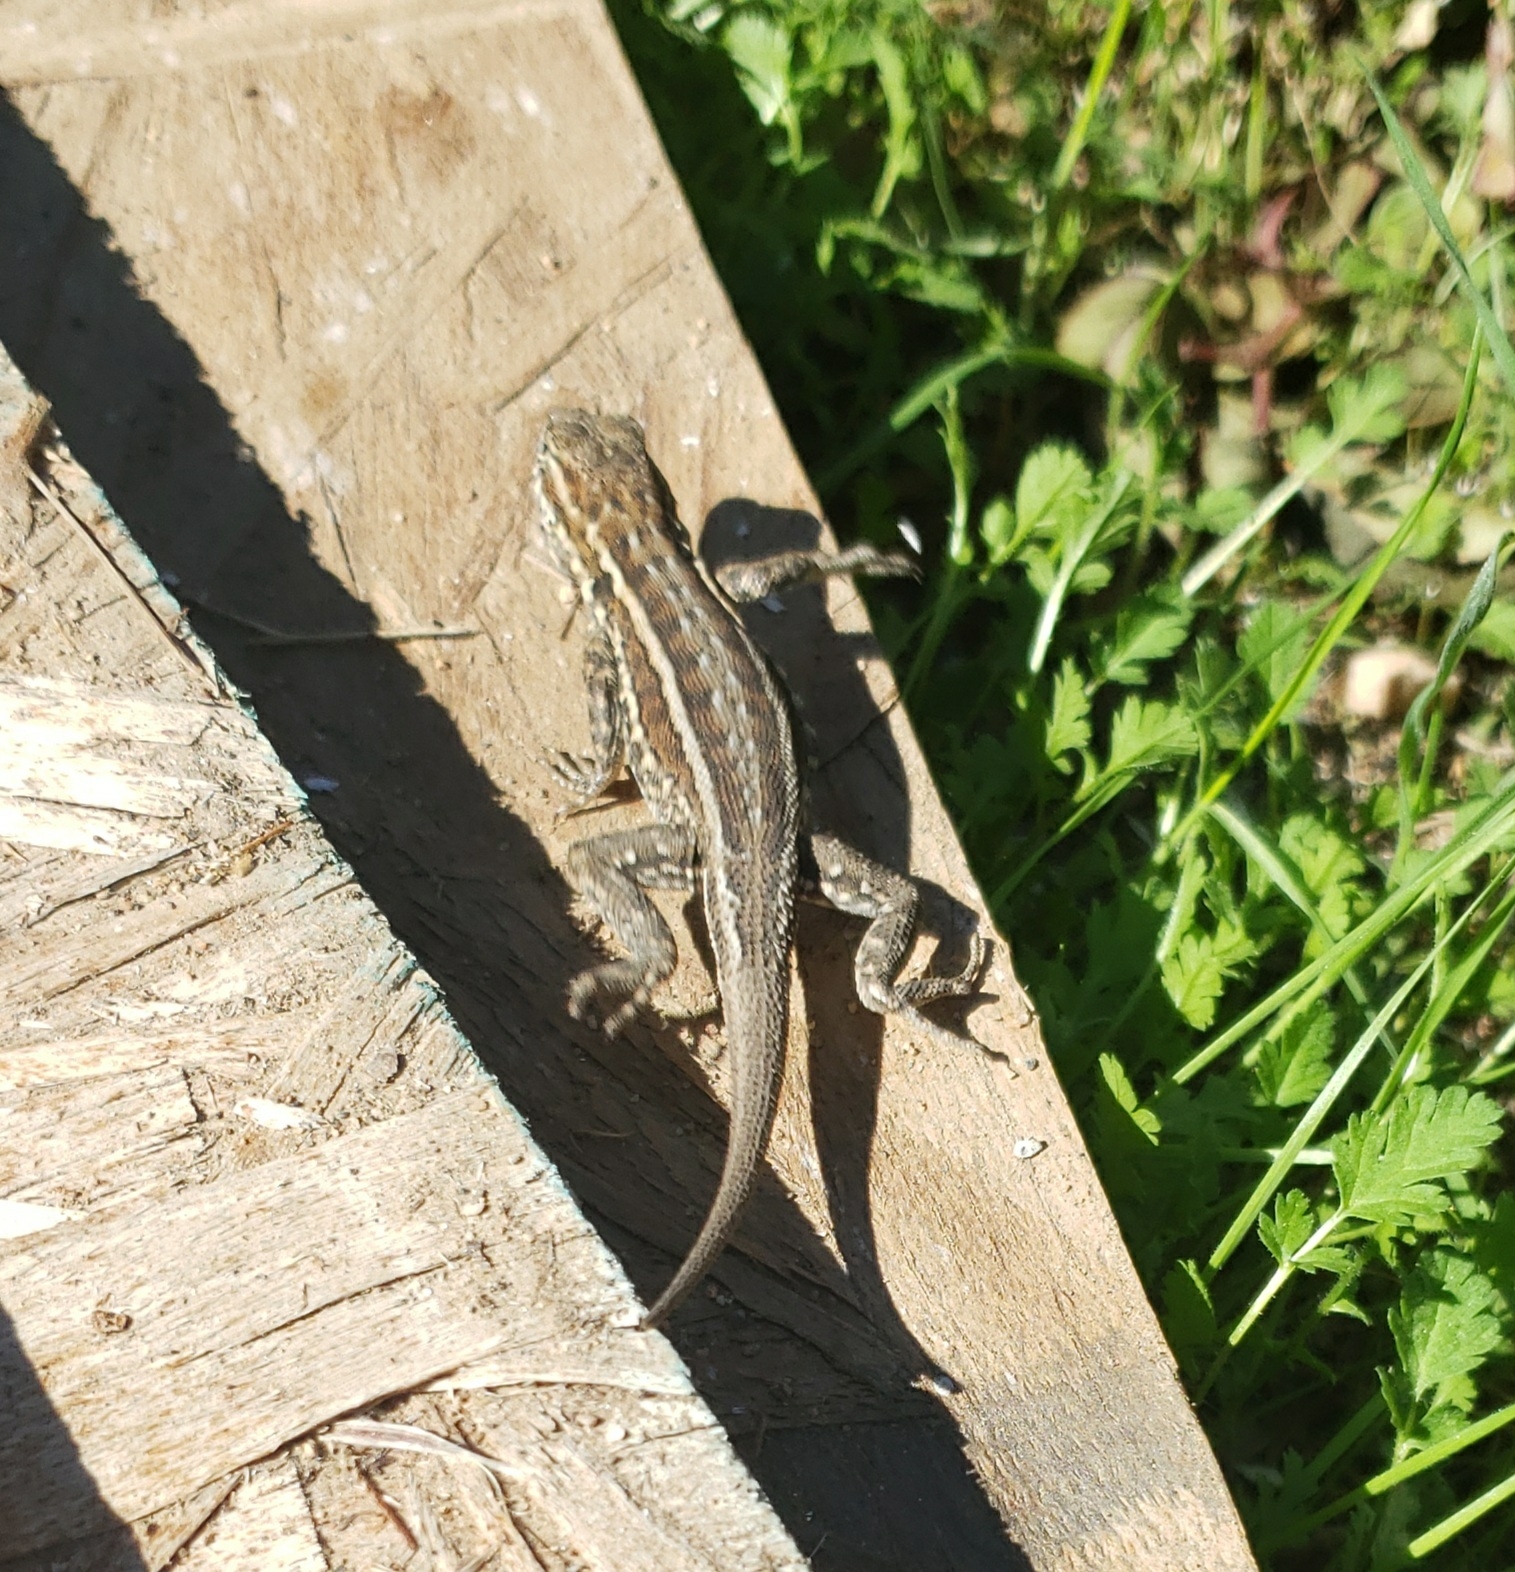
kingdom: Animalia
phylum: Chordata
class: Squamata
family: Phrynosomatidae
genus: Uta
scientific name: Uta stansburiana
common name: Side-blotched lizard
